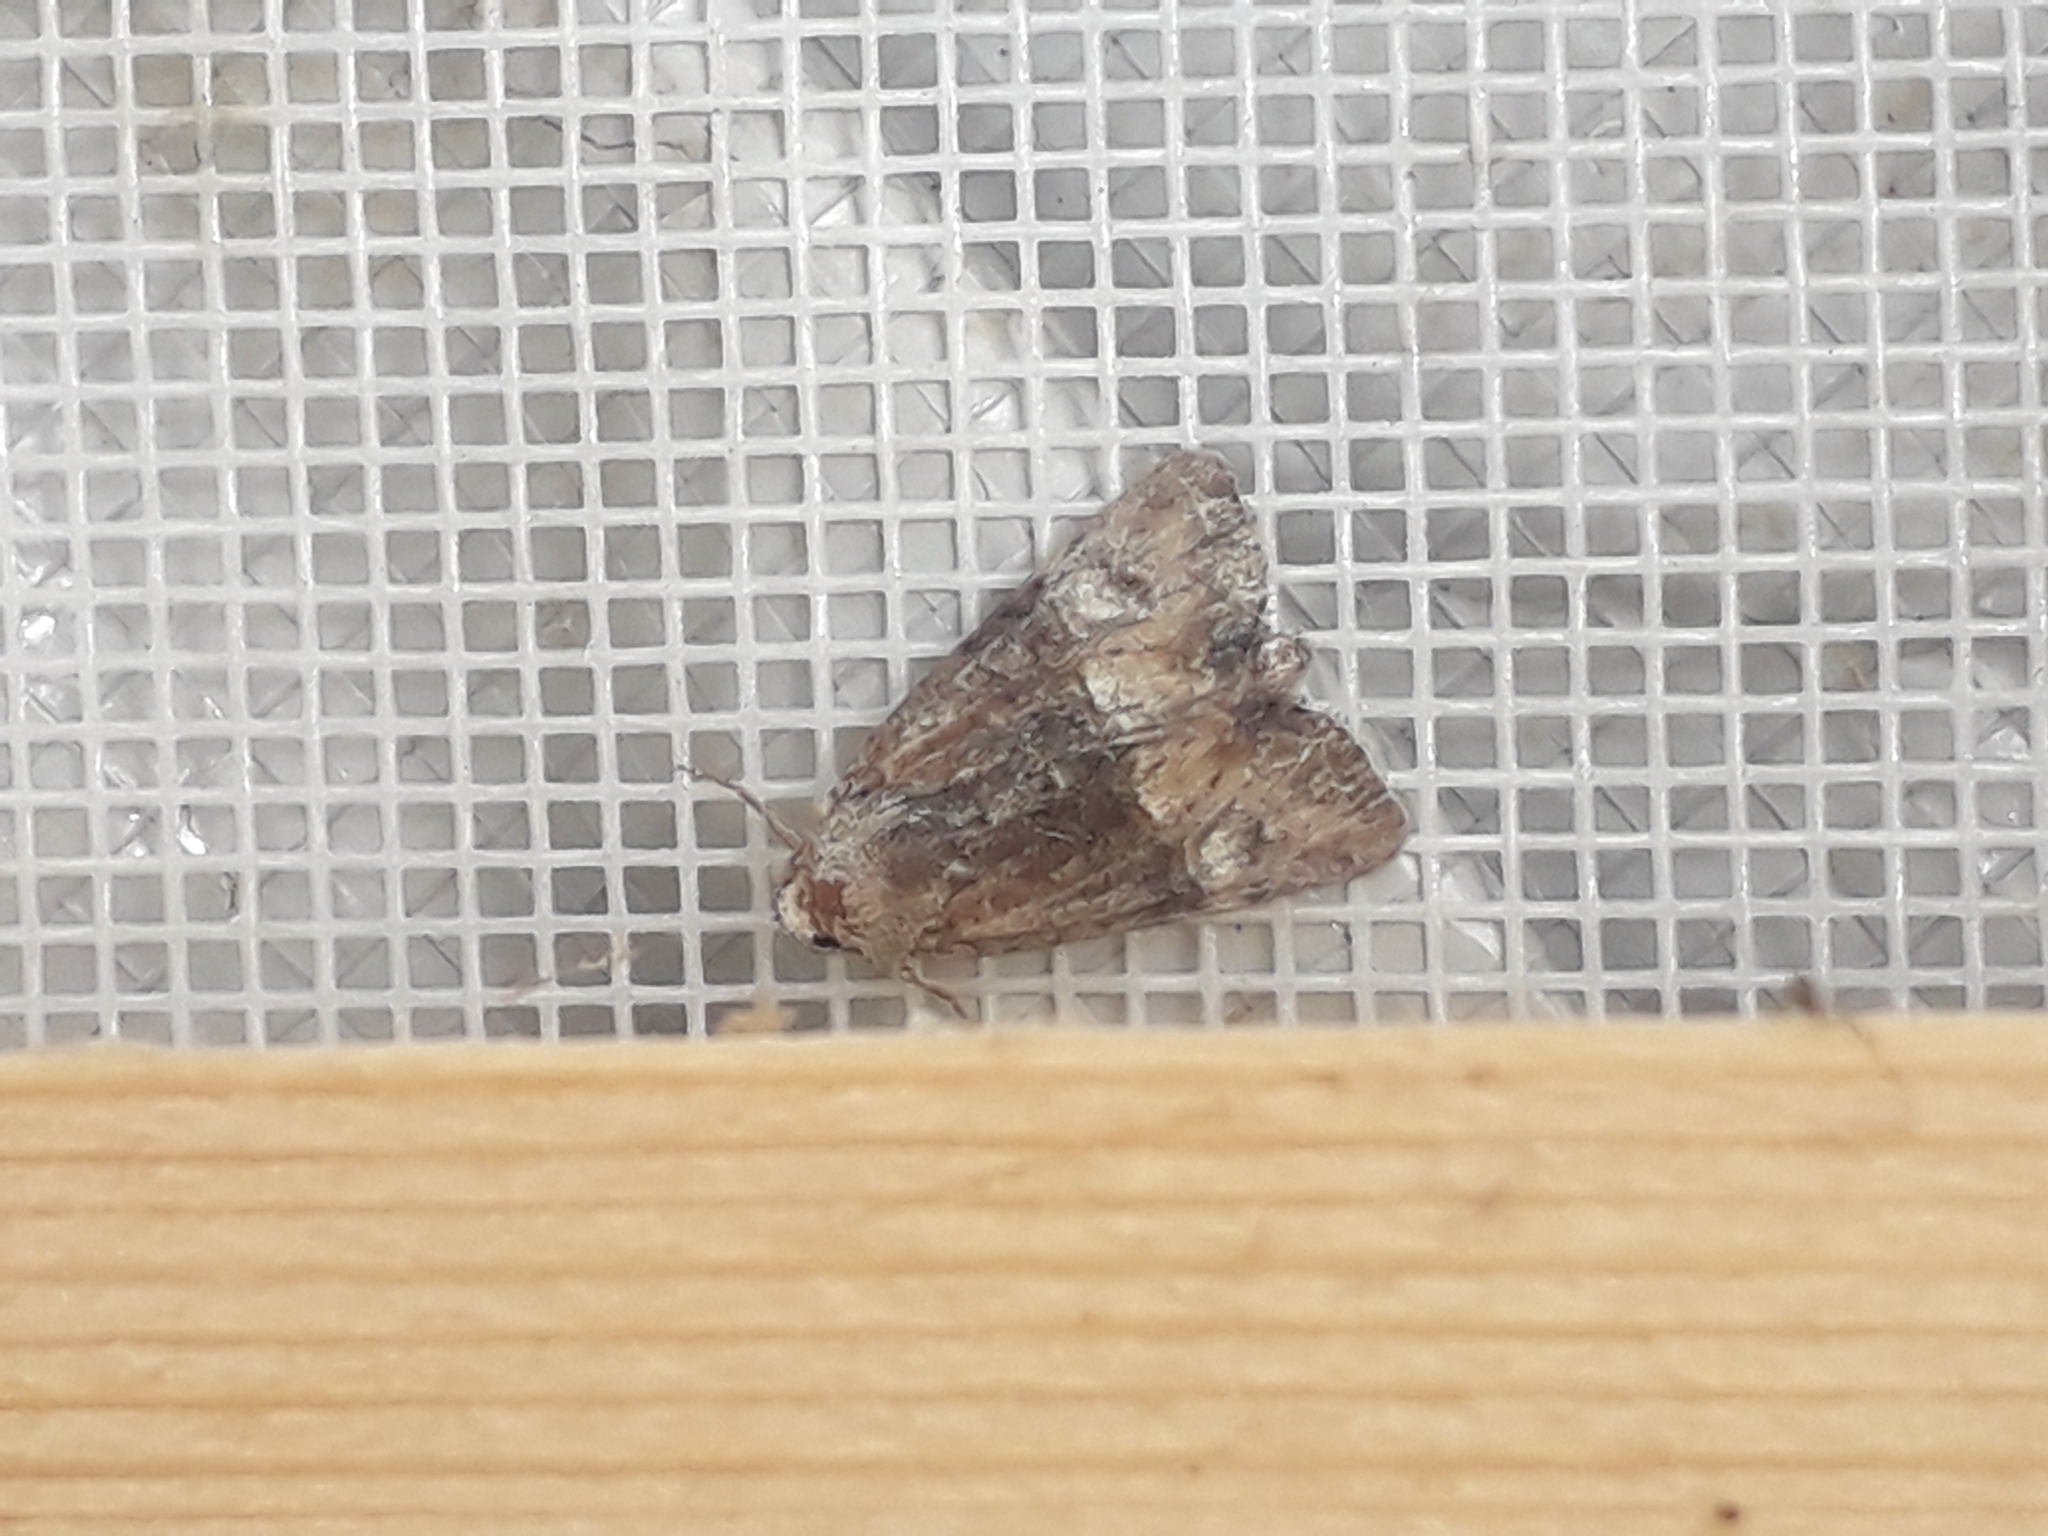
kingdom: Animalia
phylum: Arthropoda
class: Insecta
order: Lepidoptera
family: Noctuidae
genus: Mesoligia
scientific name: Mesoligia furuncula
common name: Cloaked minor
